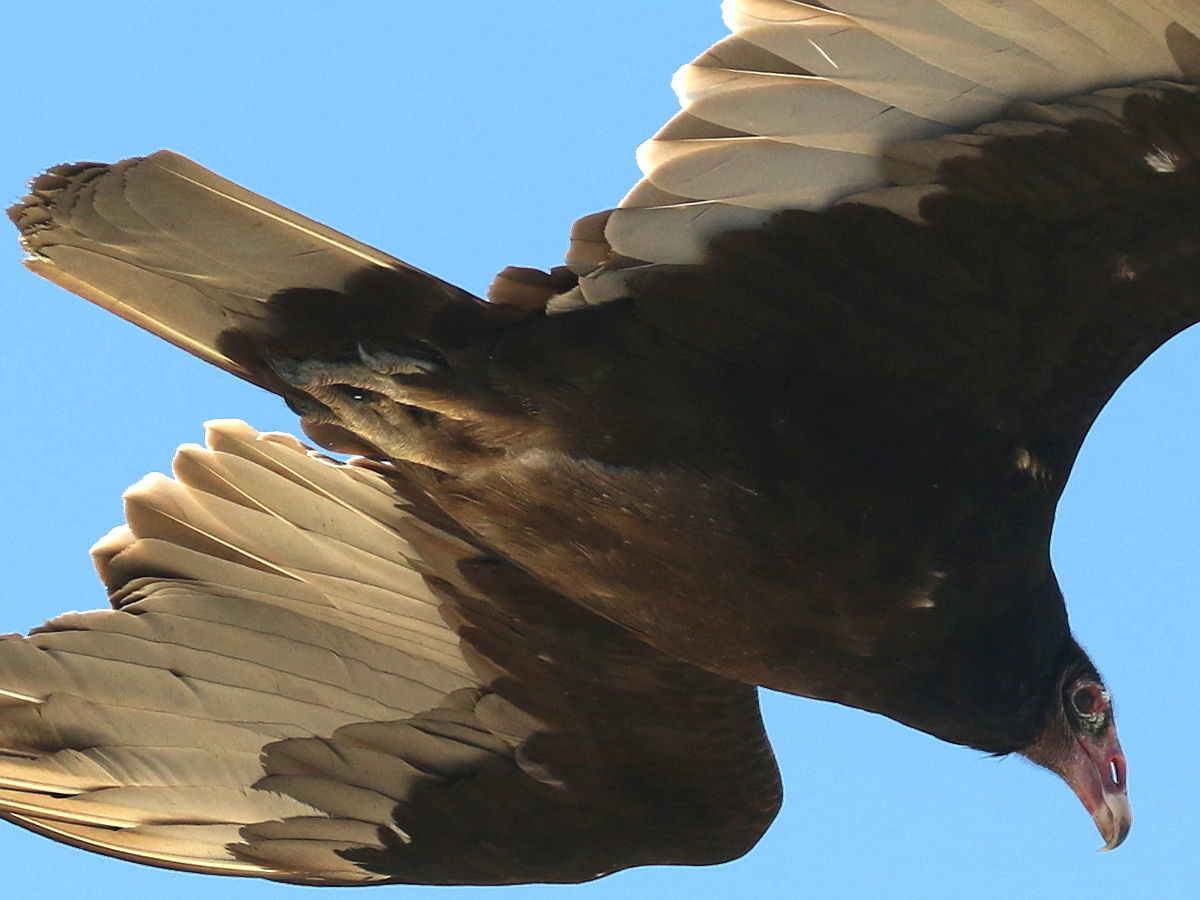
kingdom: Animalia
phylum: Chordata
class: Aves
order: Accipitriformes
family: Cathartidae
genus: Cathartes
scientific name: Cathartes aura
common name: Turkey vulture
